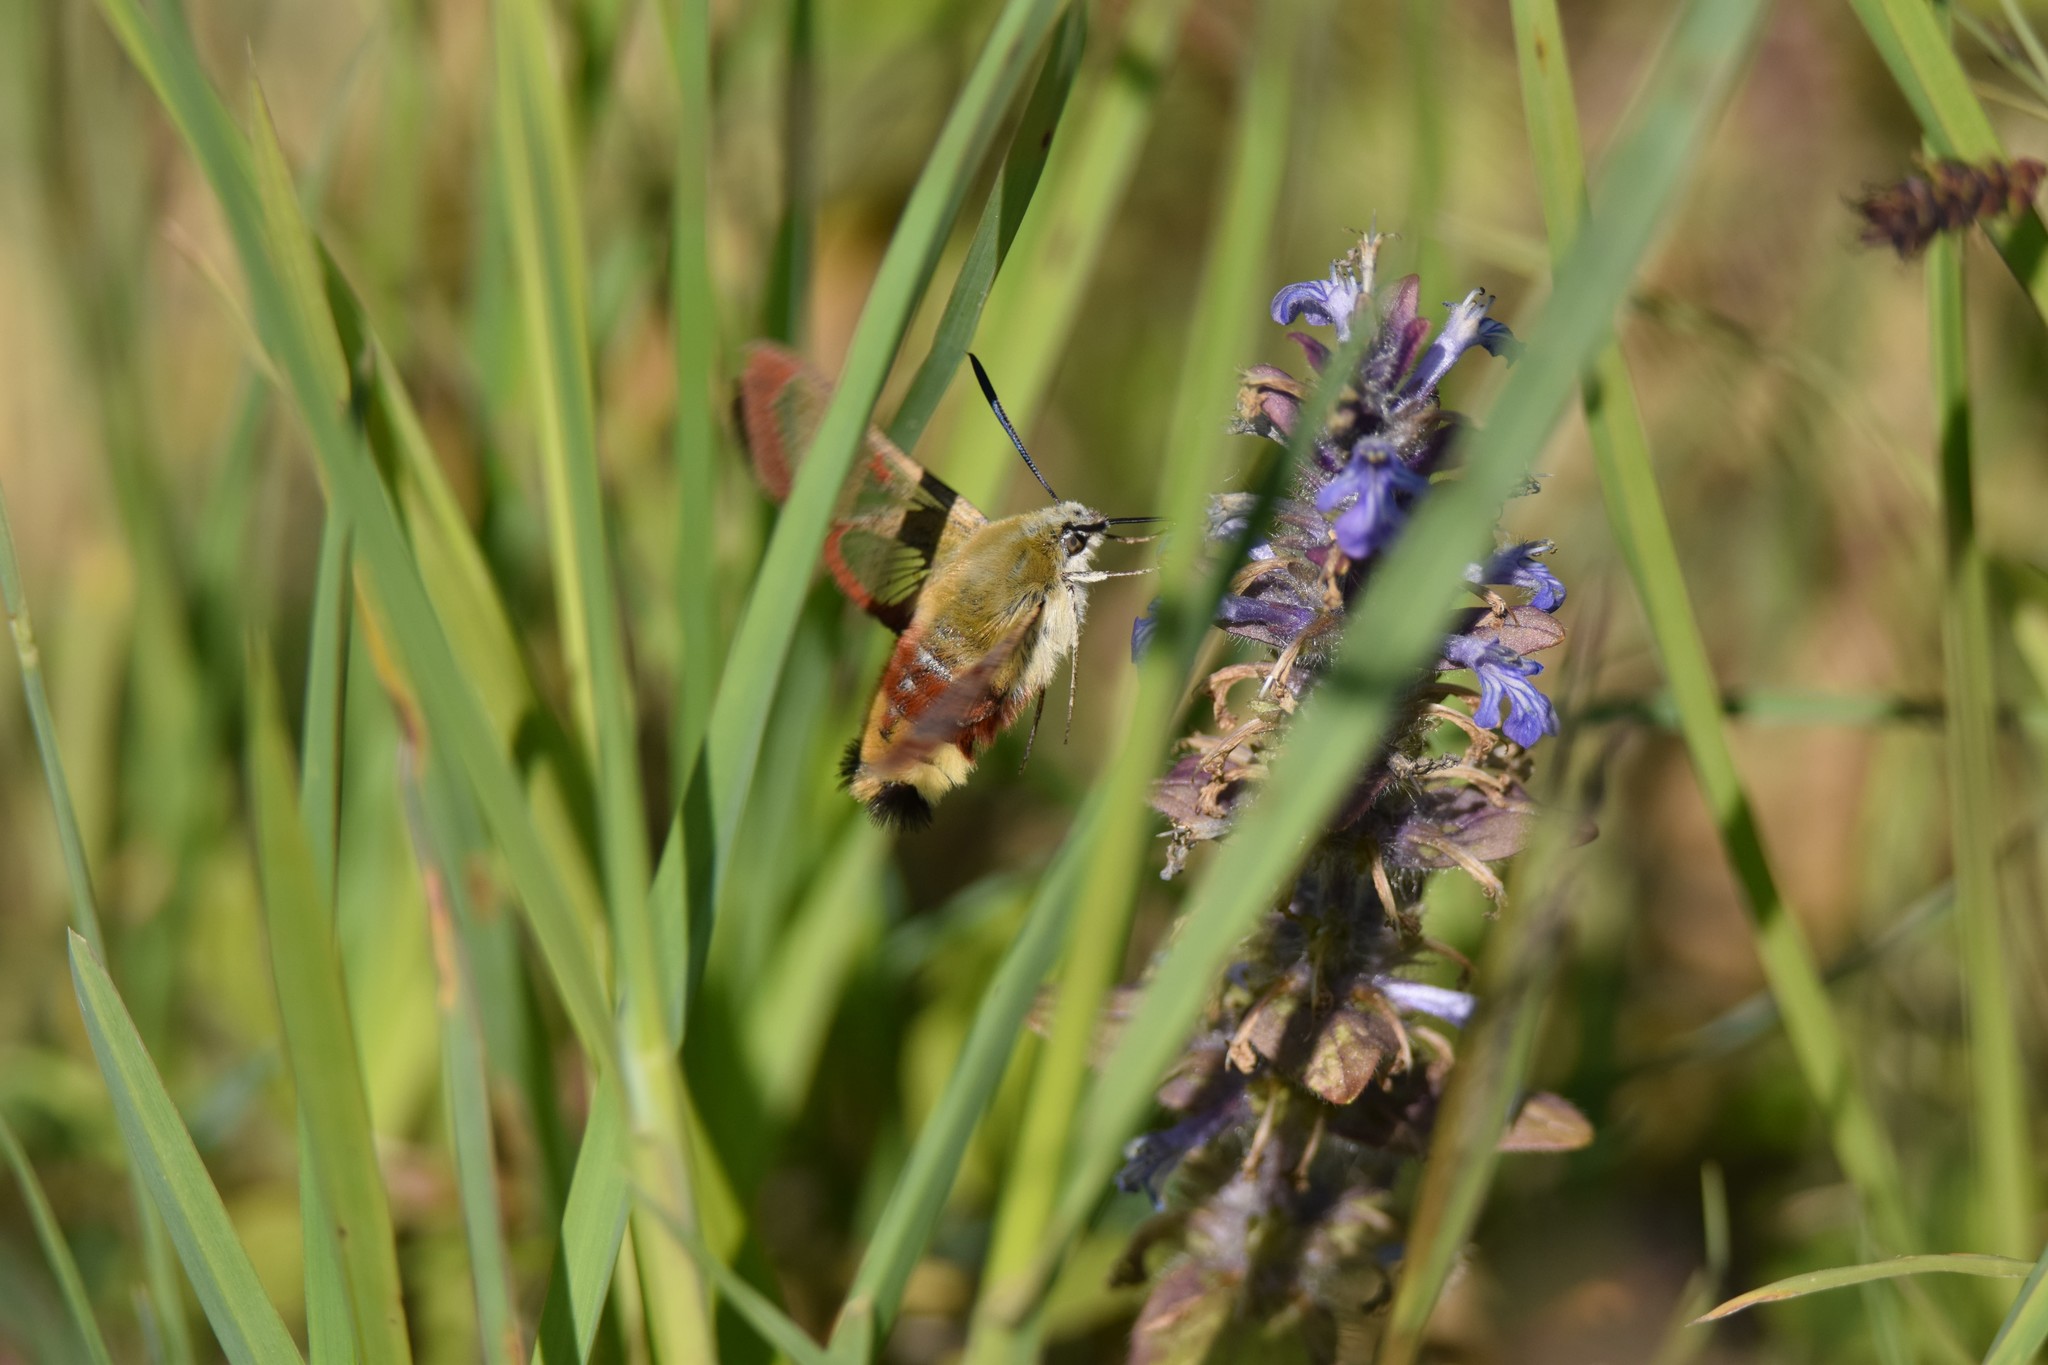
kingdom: Animalia
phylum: Arthropoda
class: Insecta
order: Lepidoptera
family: Sphingidae
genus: Hemaris
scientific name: Hemaris fuciformis
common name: Broad-bordered bee hawk-moth
